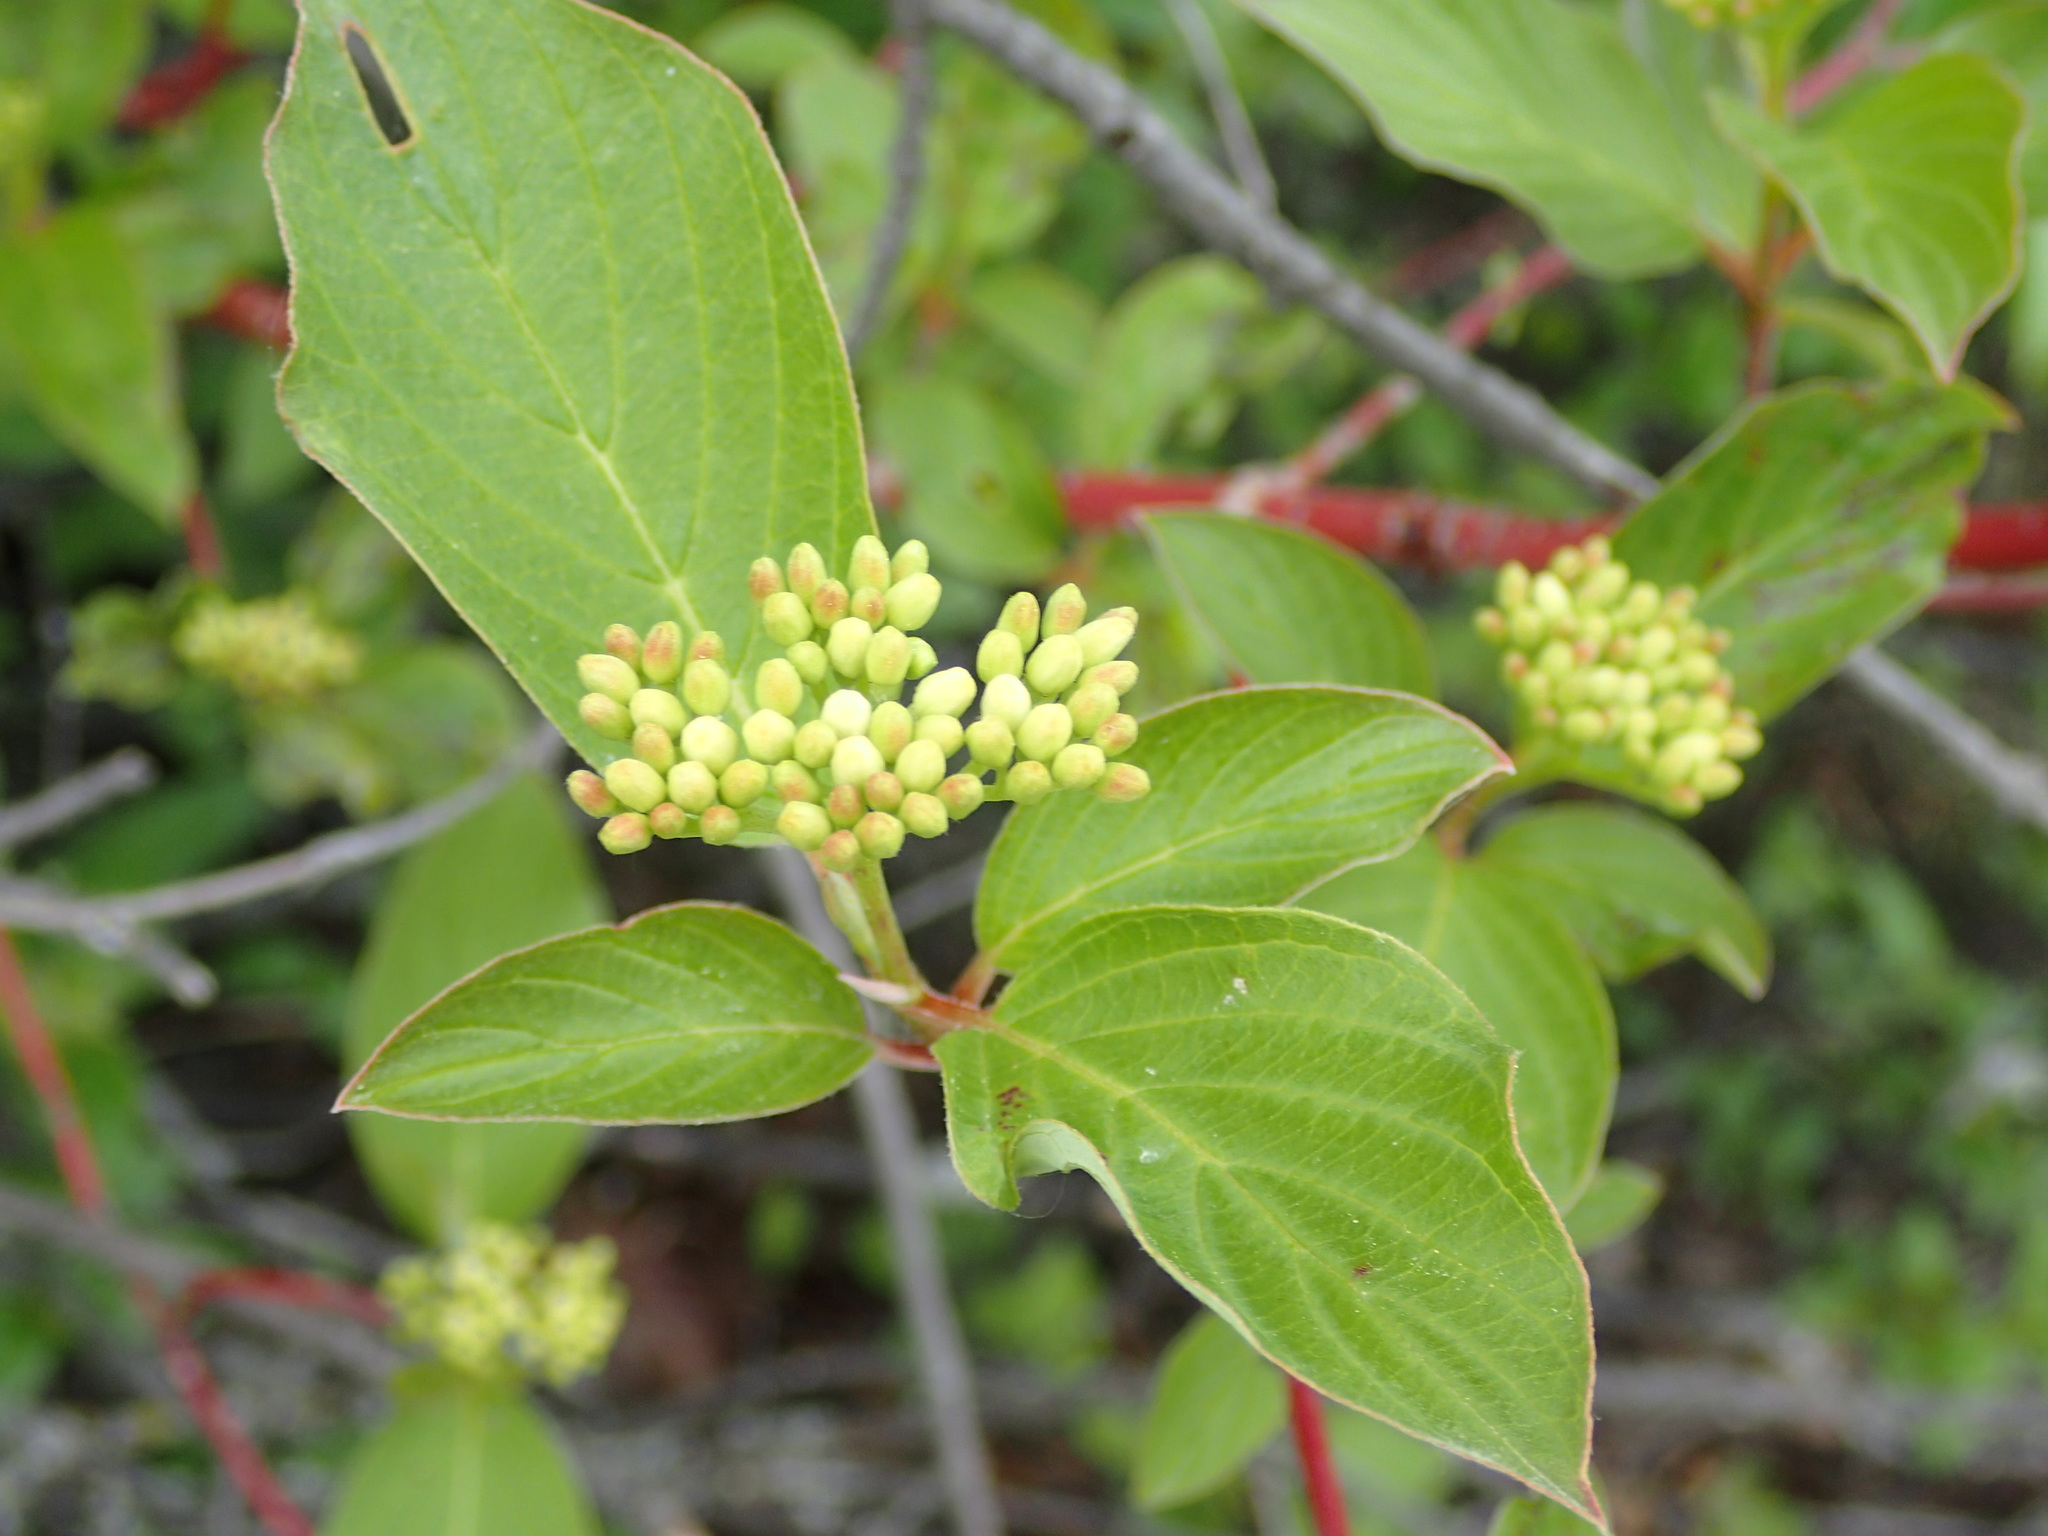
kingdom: Plantae
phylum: Tracheophyta
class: Magnoliopsida
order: Cornales
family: Cornaceae
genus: Cornus
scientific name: Cornus sericea
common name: Red-osier dogwood
